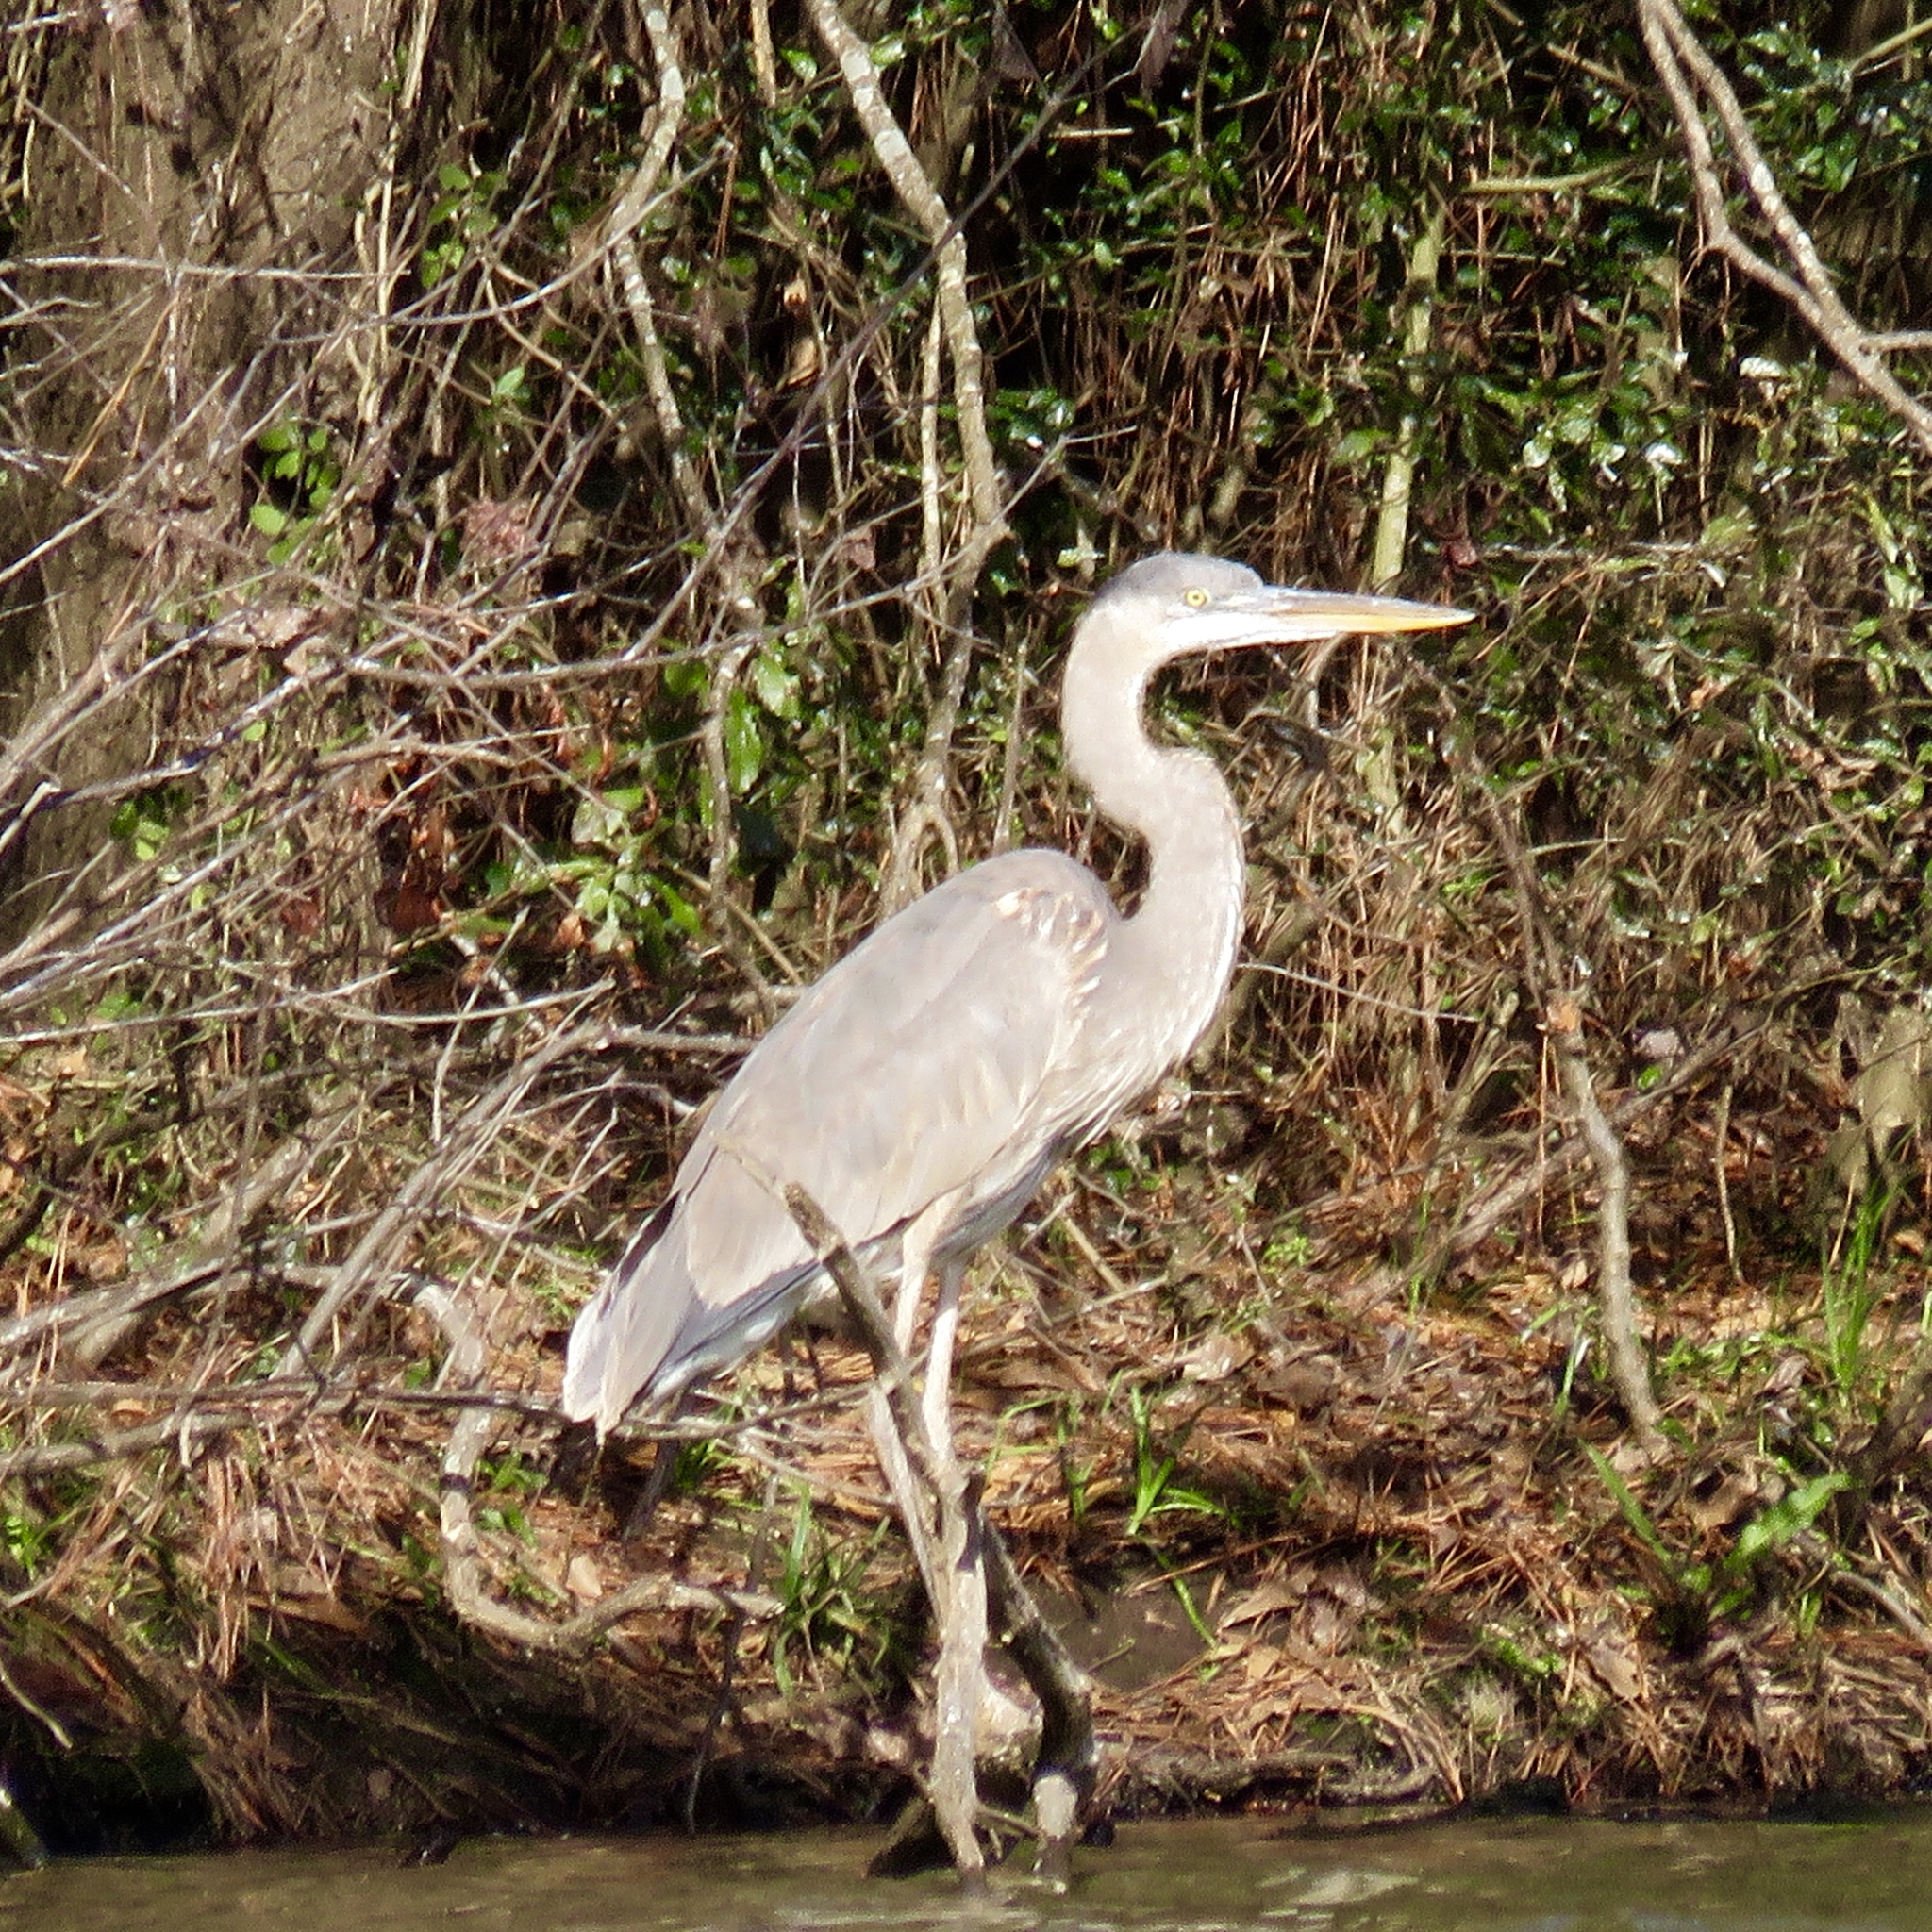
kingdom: Animalia
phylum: Chordata
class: Aves
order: Pelecaniformes
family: Ardeidae
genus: Ardea
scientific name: Ardea herodias
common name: Great blue heron
